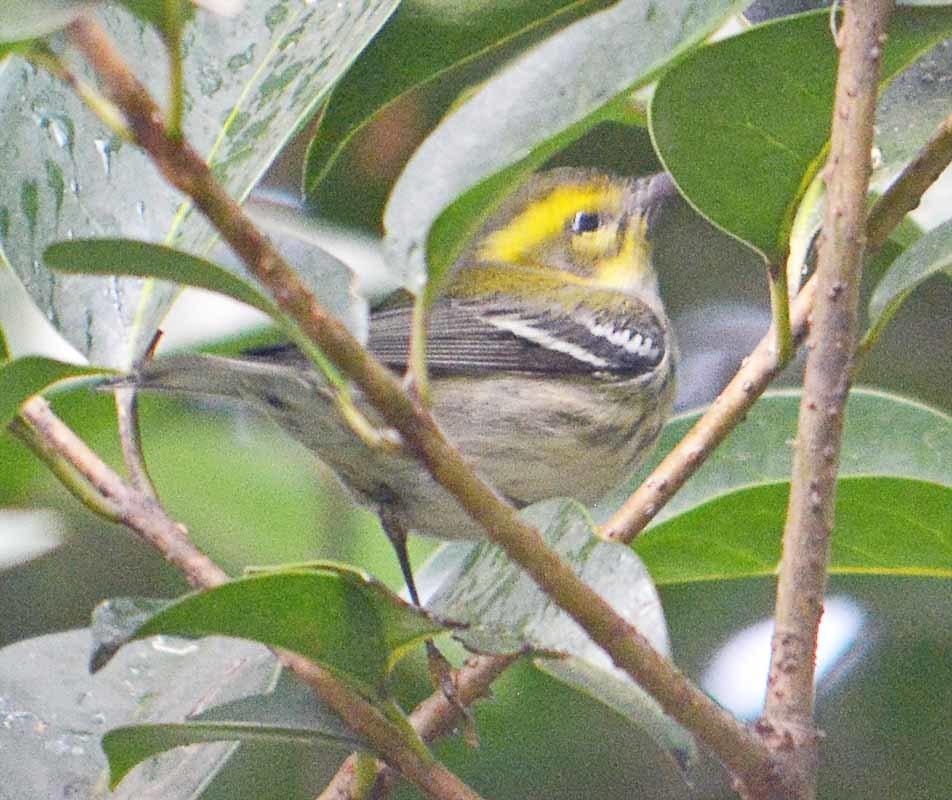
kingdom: Animalia
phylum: Chordata
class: Aves
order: Passeriformes
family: Parulidae
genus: Setophaga
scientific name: Setophaga townsendi
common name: Townsend's warbler
